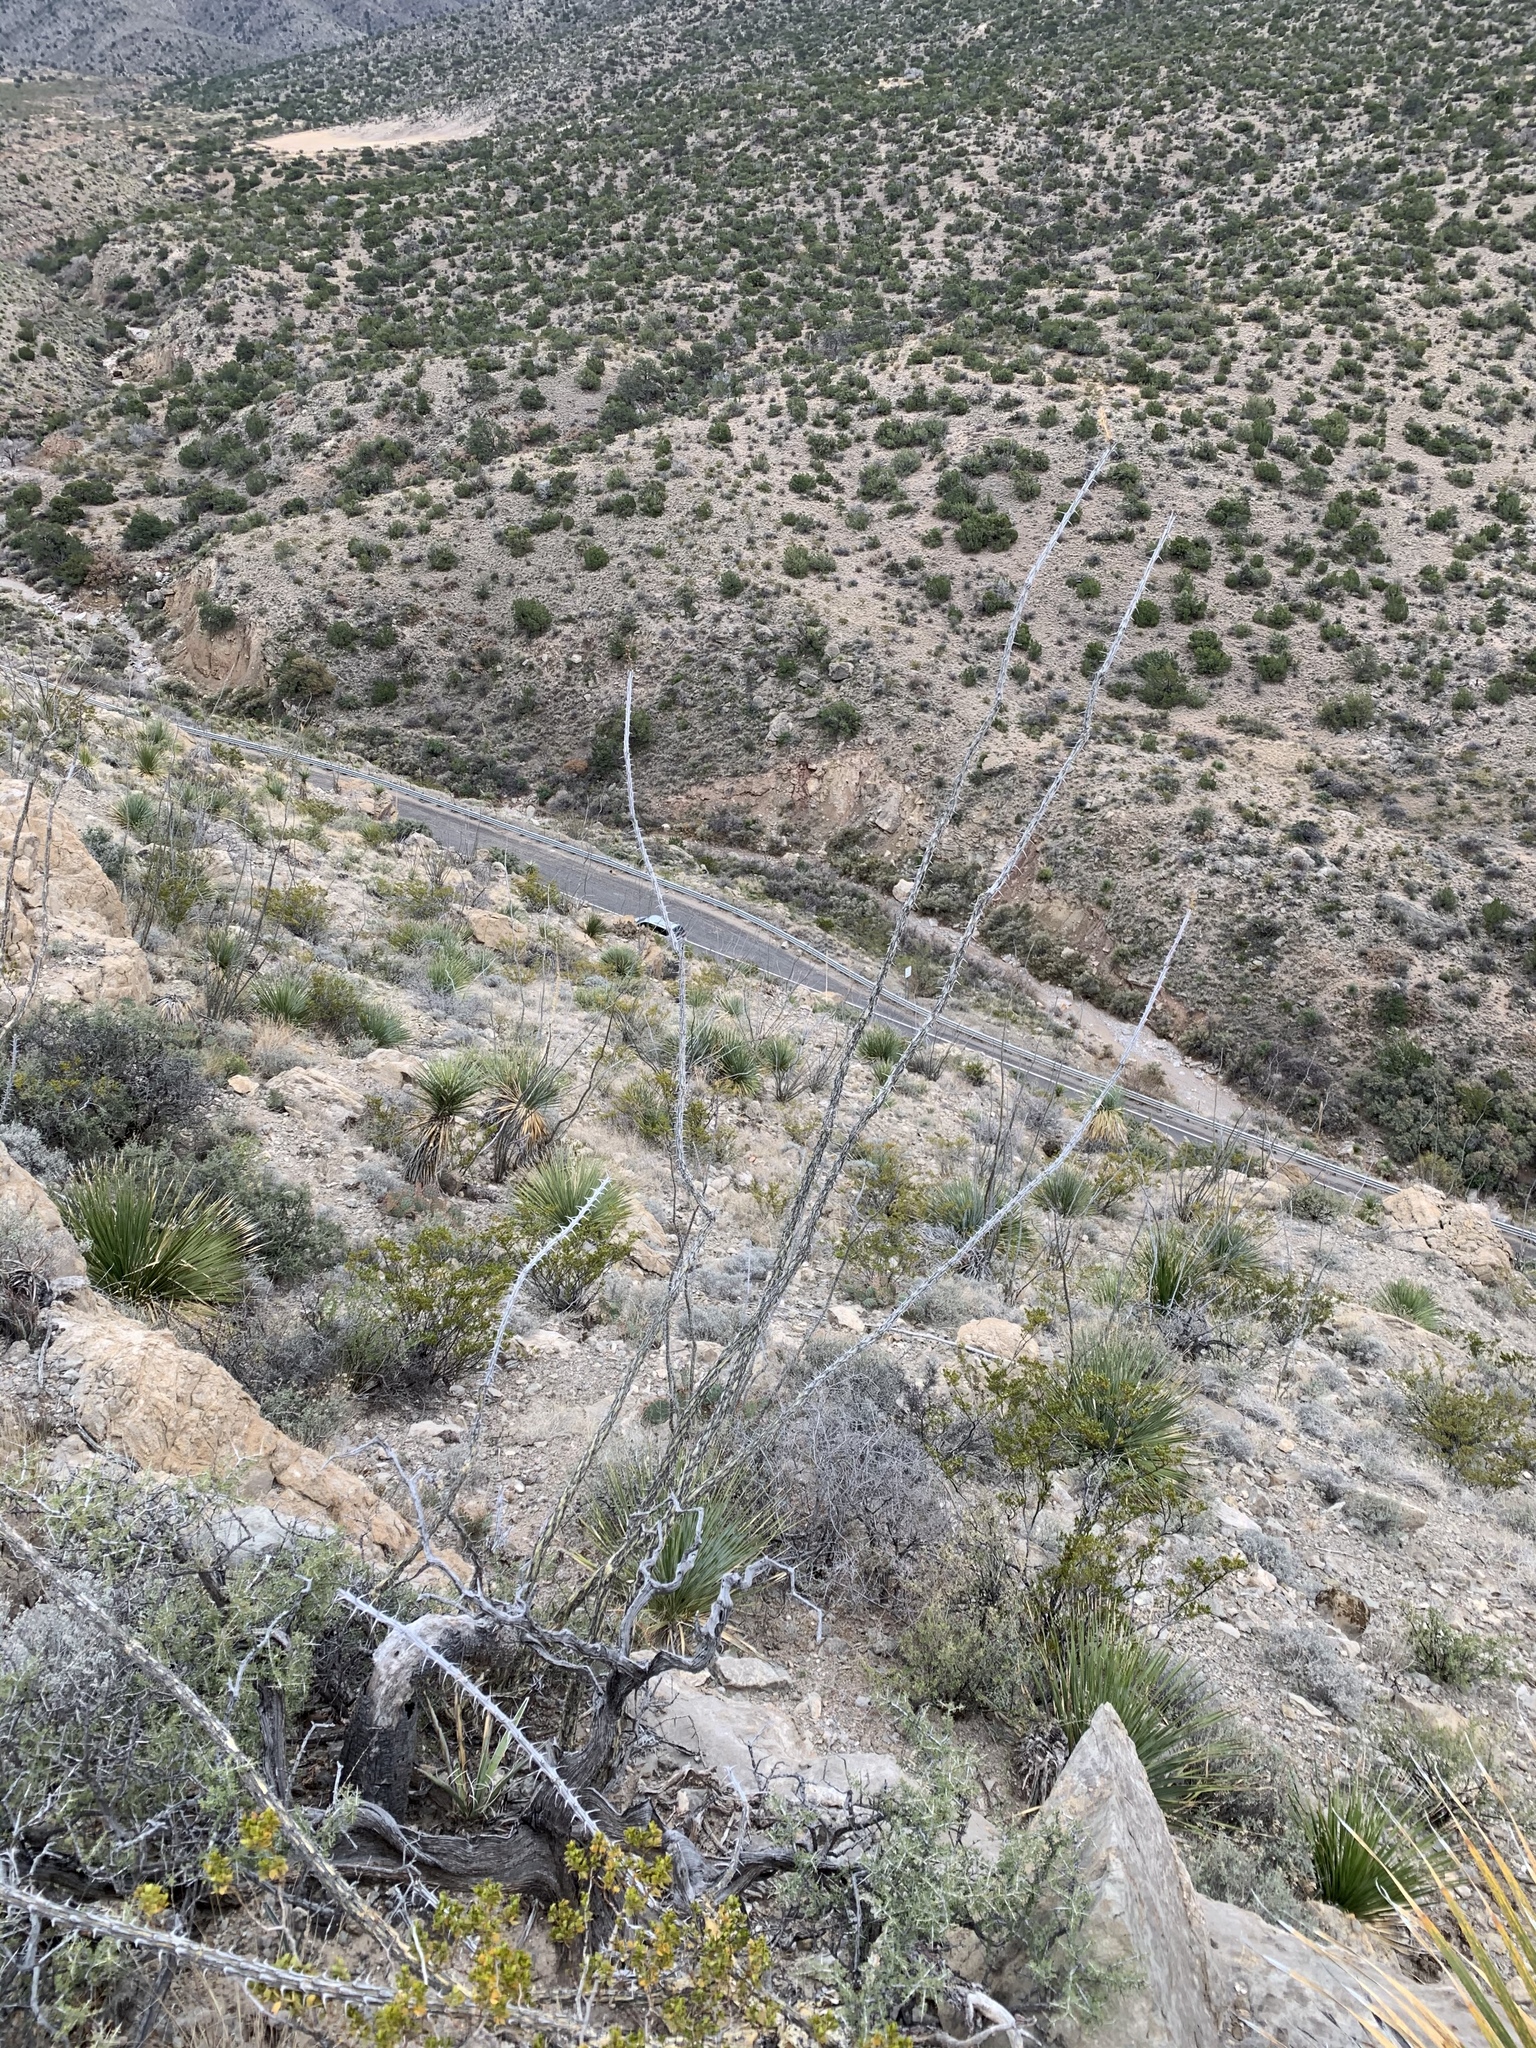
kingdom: Plantae
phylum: Tracheophyta
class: Magnoliopsida
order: Ericales
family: Fouquieriaceae
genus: Fouquieria
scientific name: Fouquieria splendens
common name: Vine-cactus
